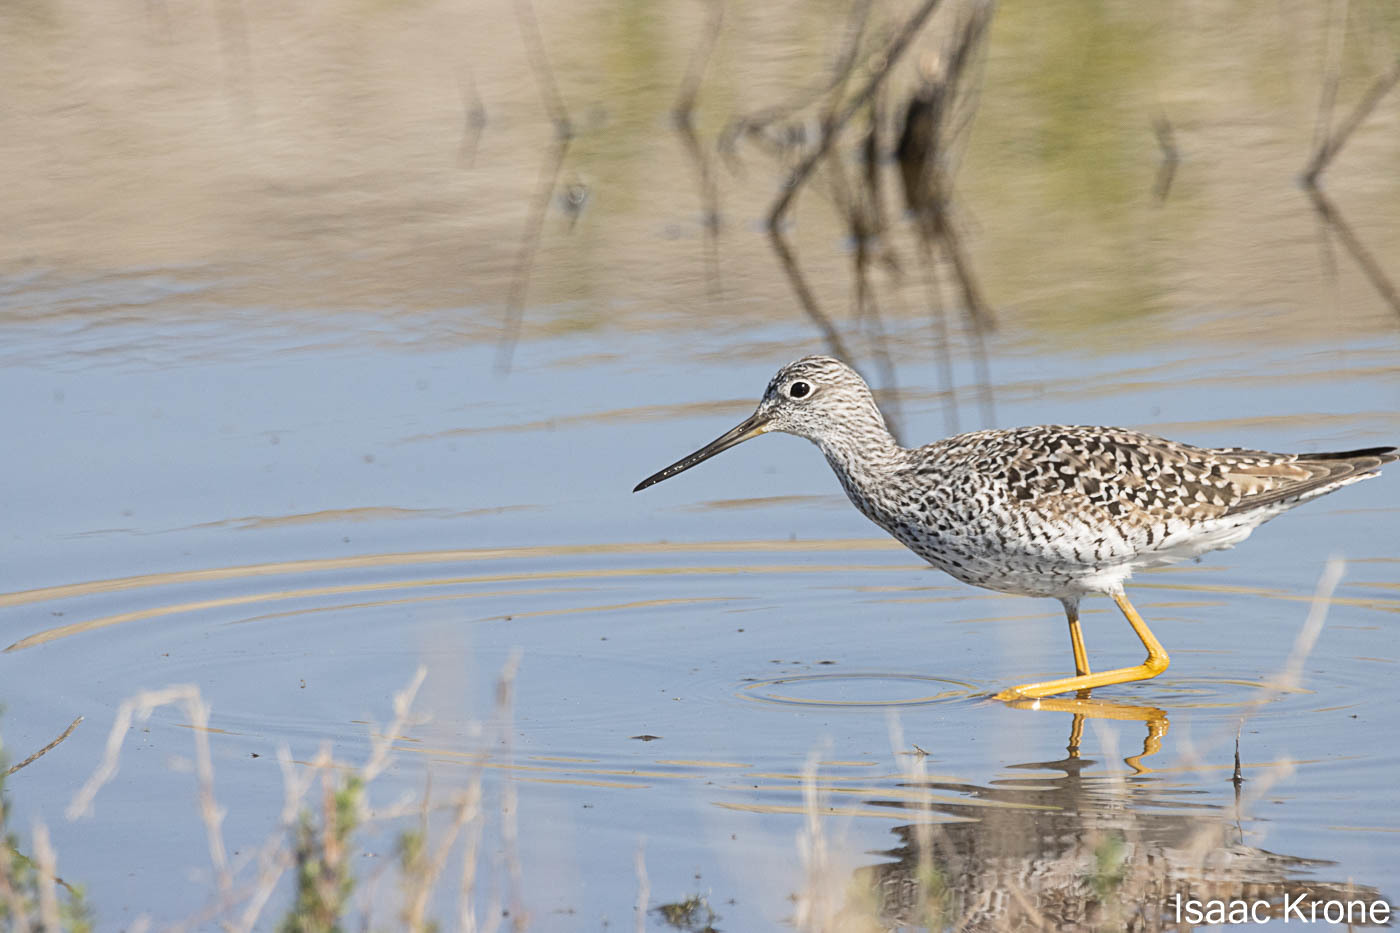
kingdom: Animalia
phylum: Chordata
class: Aves
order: Charadriiformes
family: Scolopacidae
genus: Tringa
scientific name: Tringa melanoleuca
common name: Greater yellowlegs
